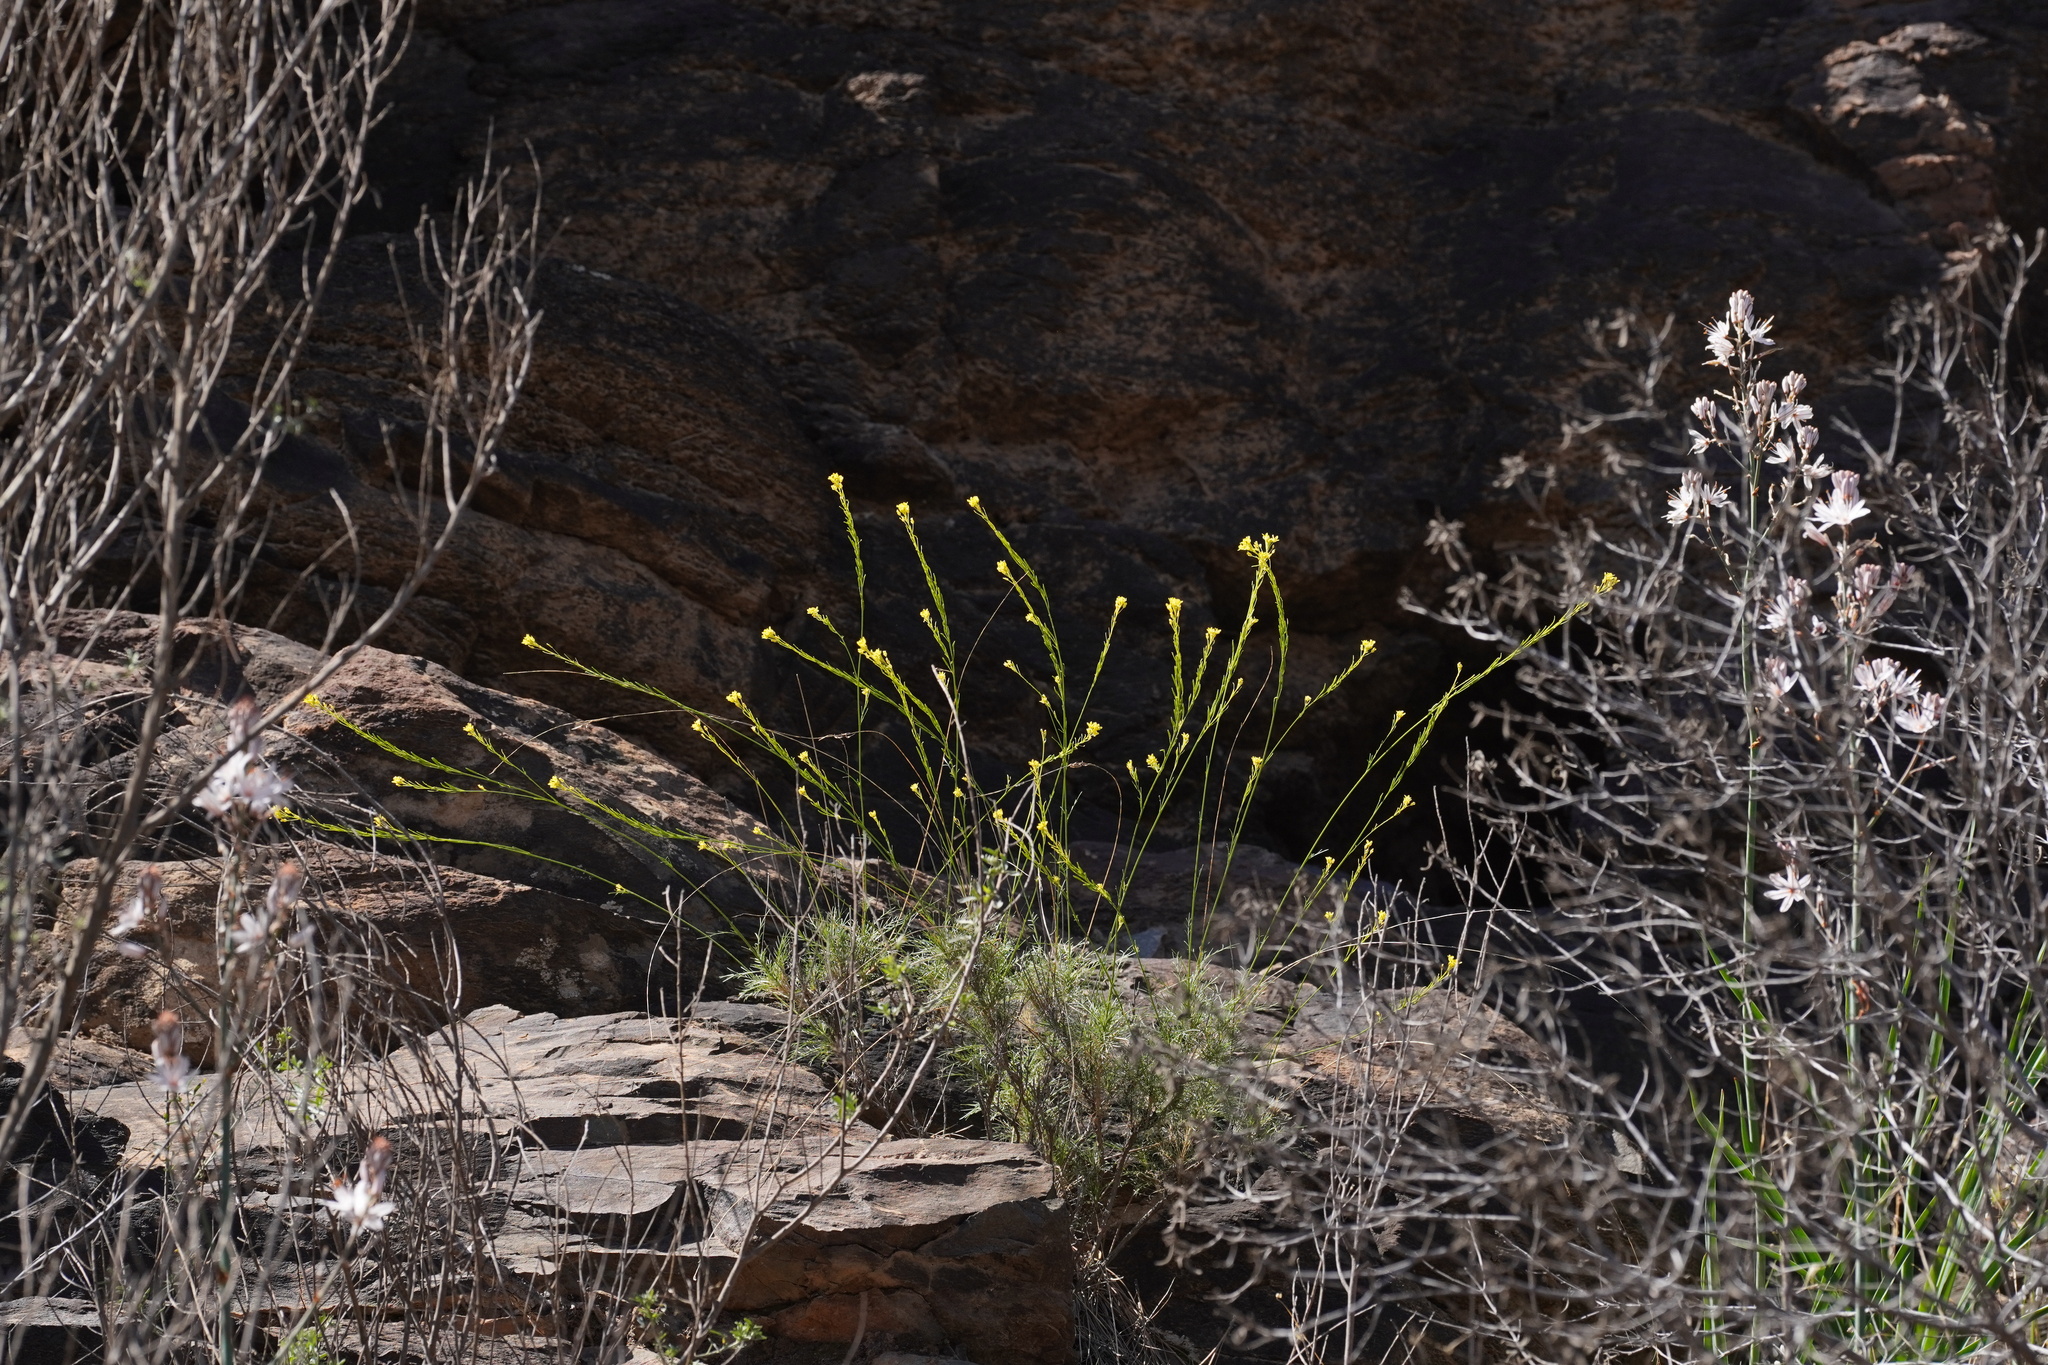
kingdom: Plantae
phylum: Tracheophyta
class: Magnoliopsida
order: Brassicales
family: Brassicaceae
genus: Descurainia
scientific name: Descurainia preauxiana
